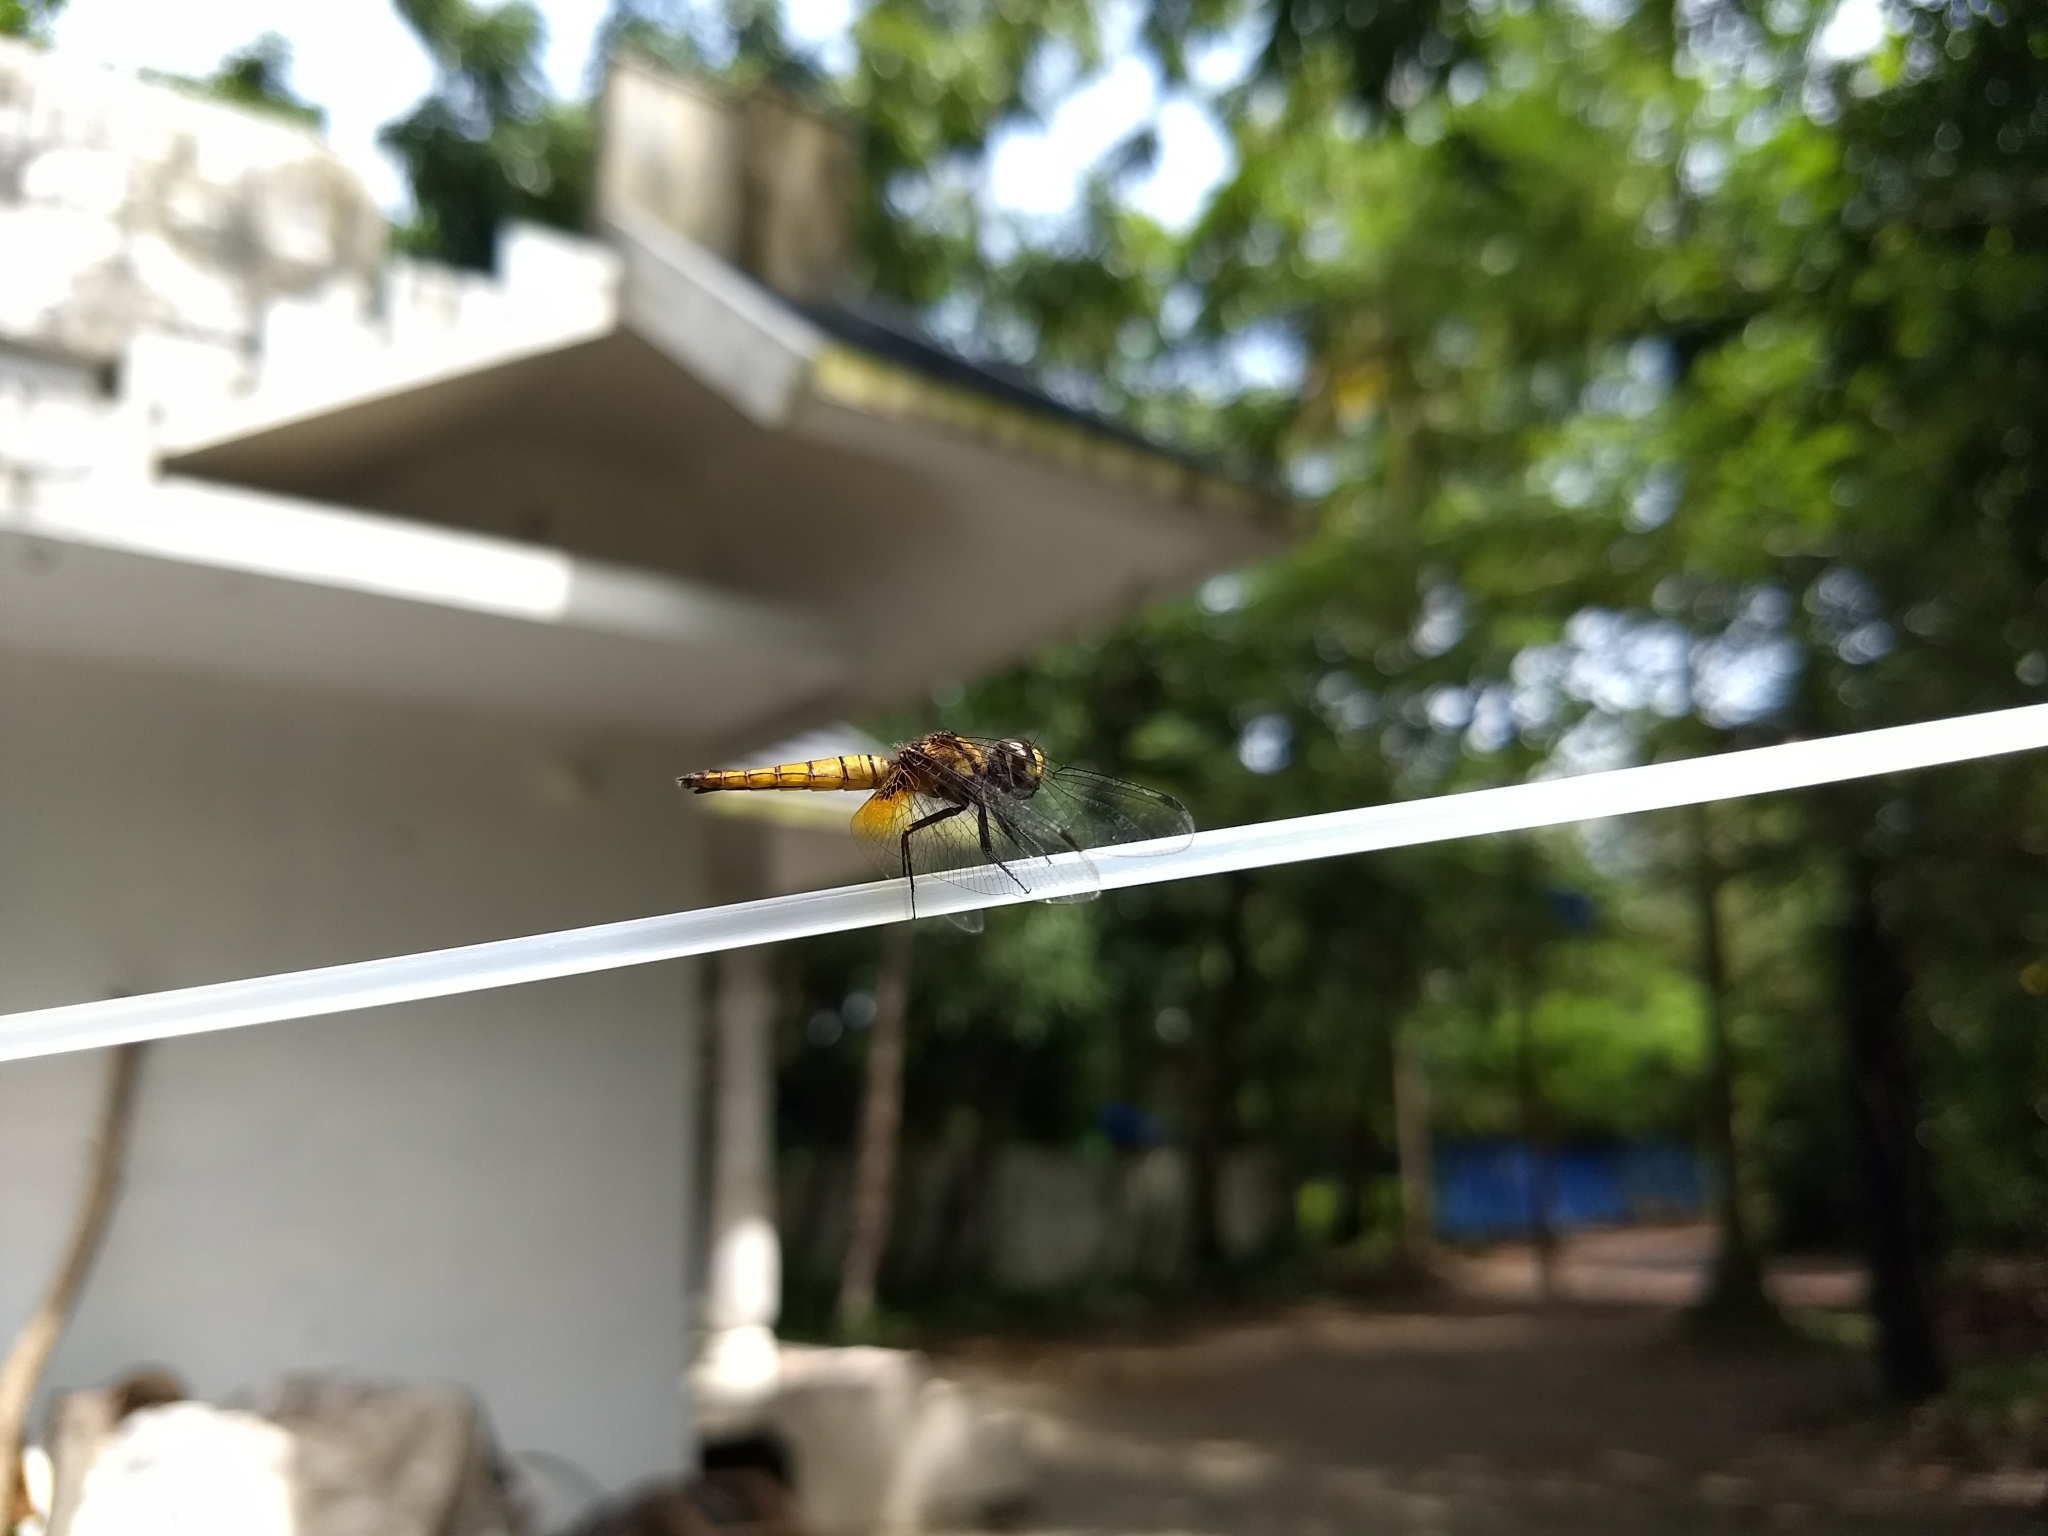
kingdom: Animalia
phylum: Arthropoda
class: Insecta
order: Odonata
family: Libellulidae
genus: Aethriamanta
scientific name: Aethriamanta brevipennis
